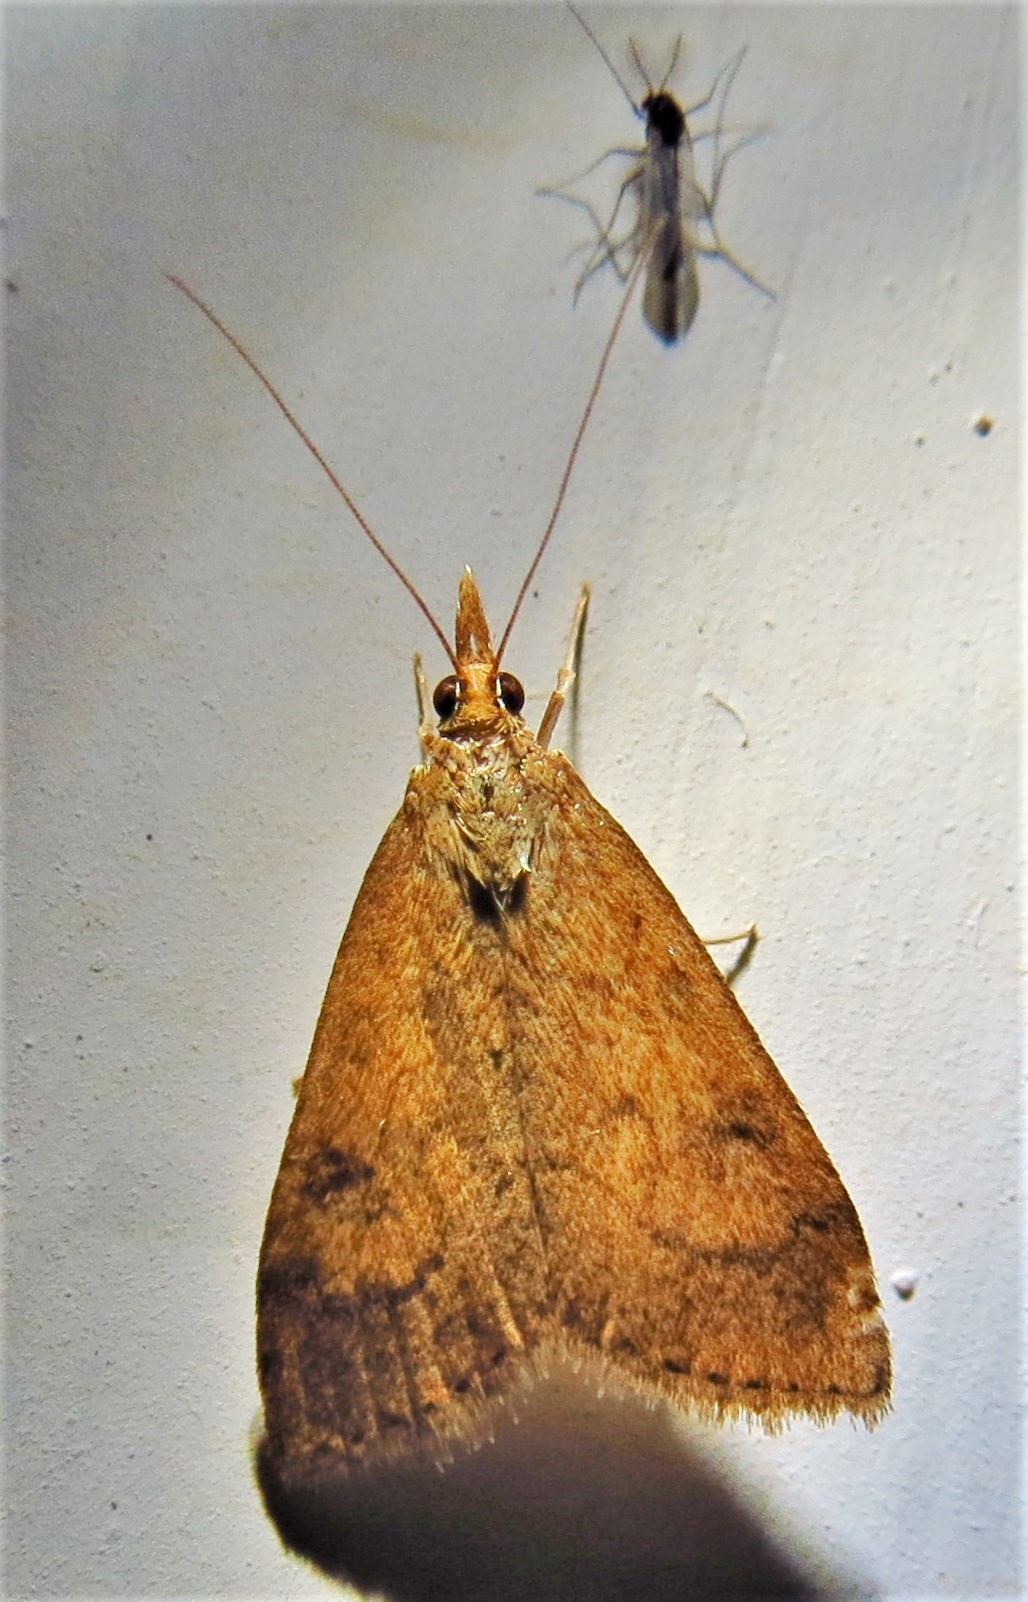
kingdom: Animalia
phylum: Arthropoda
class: Insecta
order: Lepidoptera
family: Crambidae
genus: Udea
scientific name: Udea rubigalis
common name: Celery leaftier moth
